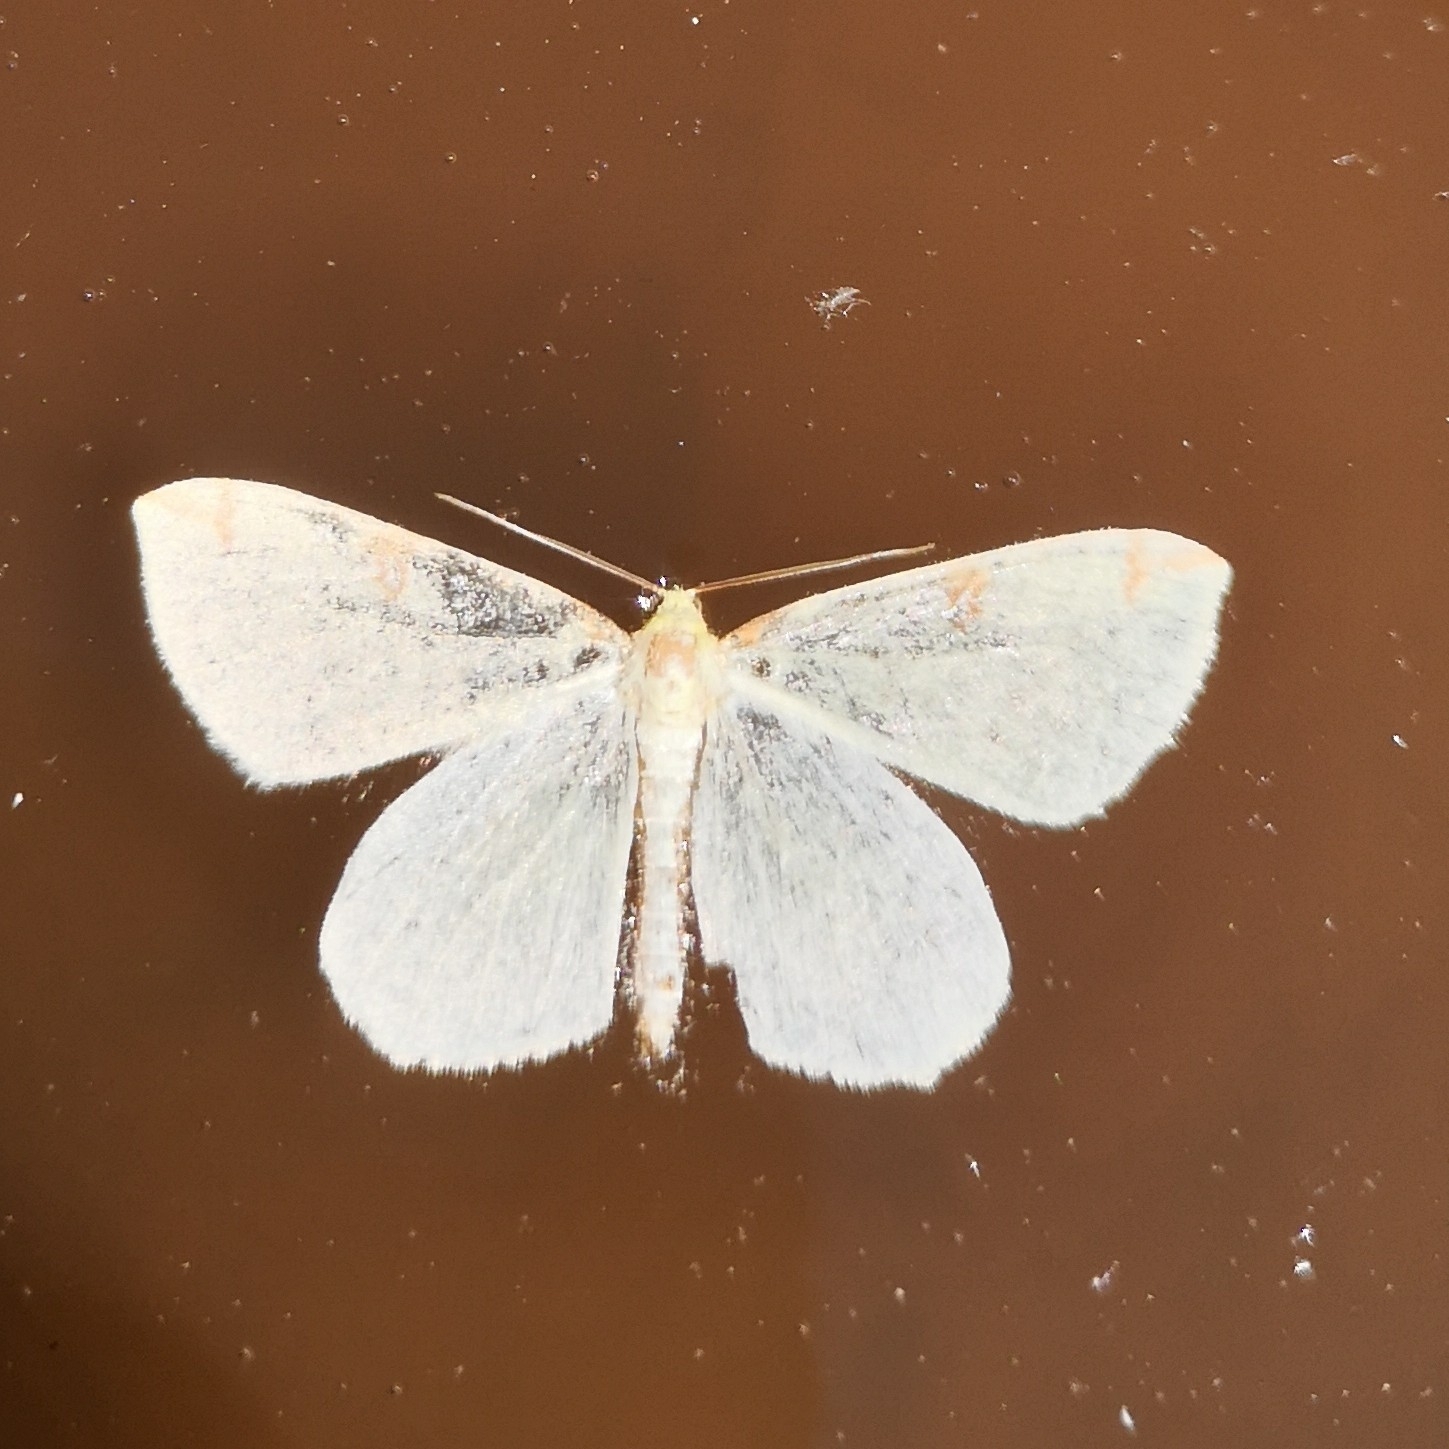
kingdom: Animalia
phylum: Arthropoda
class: Insecta
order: Lepidoptera
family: Geometridae
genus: Opisthograptis
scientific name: Opisthograptis luteolata
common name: Brimstone moth
